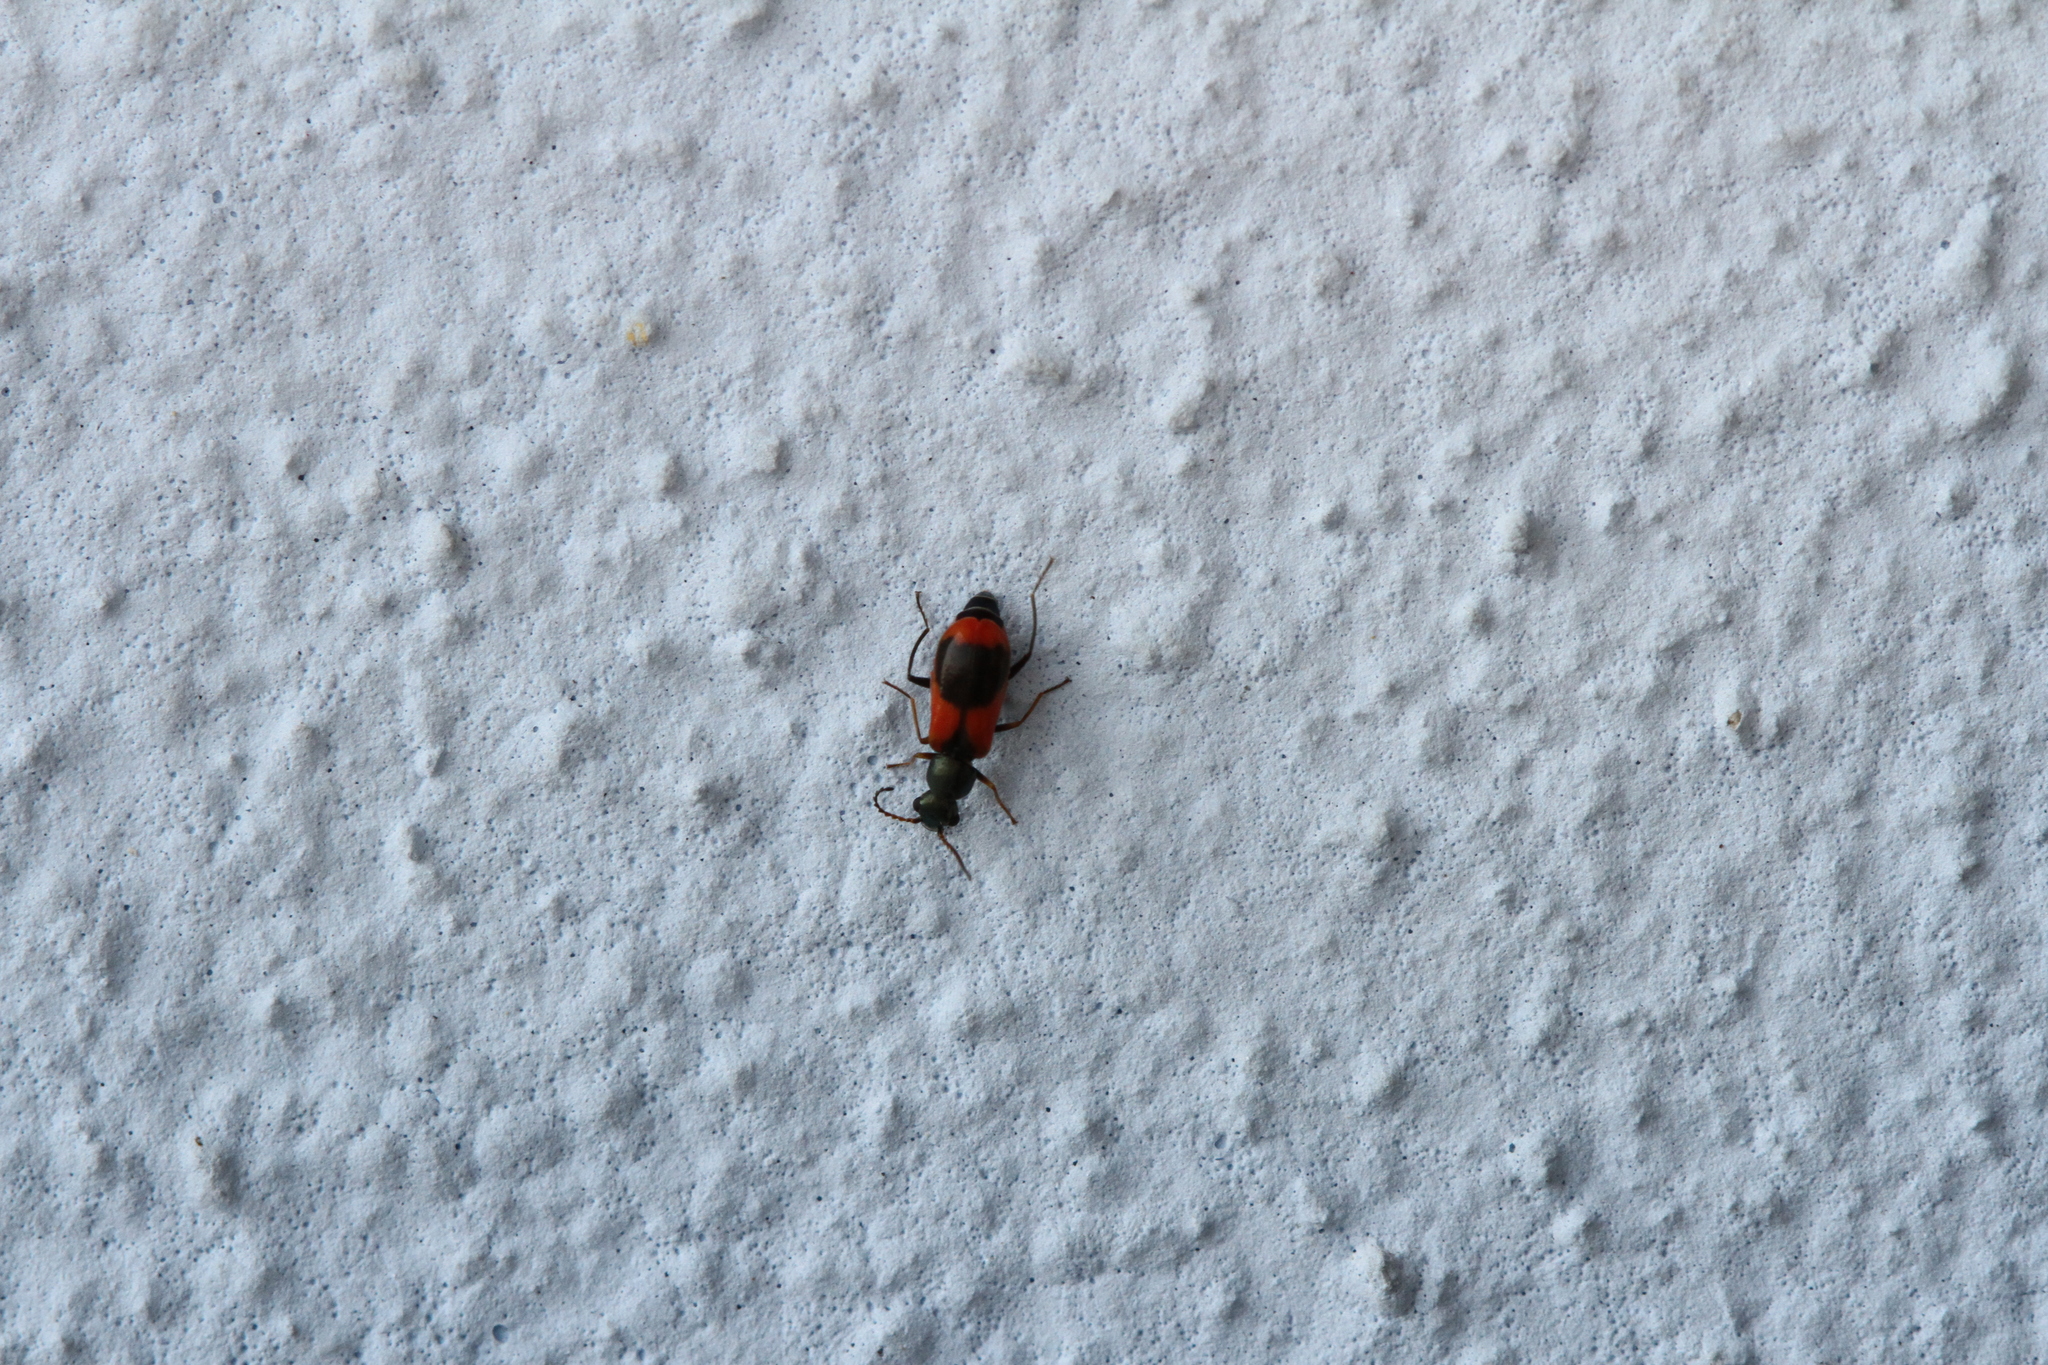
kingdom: Animalia
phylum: Arthropoda
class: Insecta
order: Coleoptera
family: Melyridae
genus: Anthocomus
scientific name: Anthocomus equestris
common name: Black-banded soft-winged flower beetle
